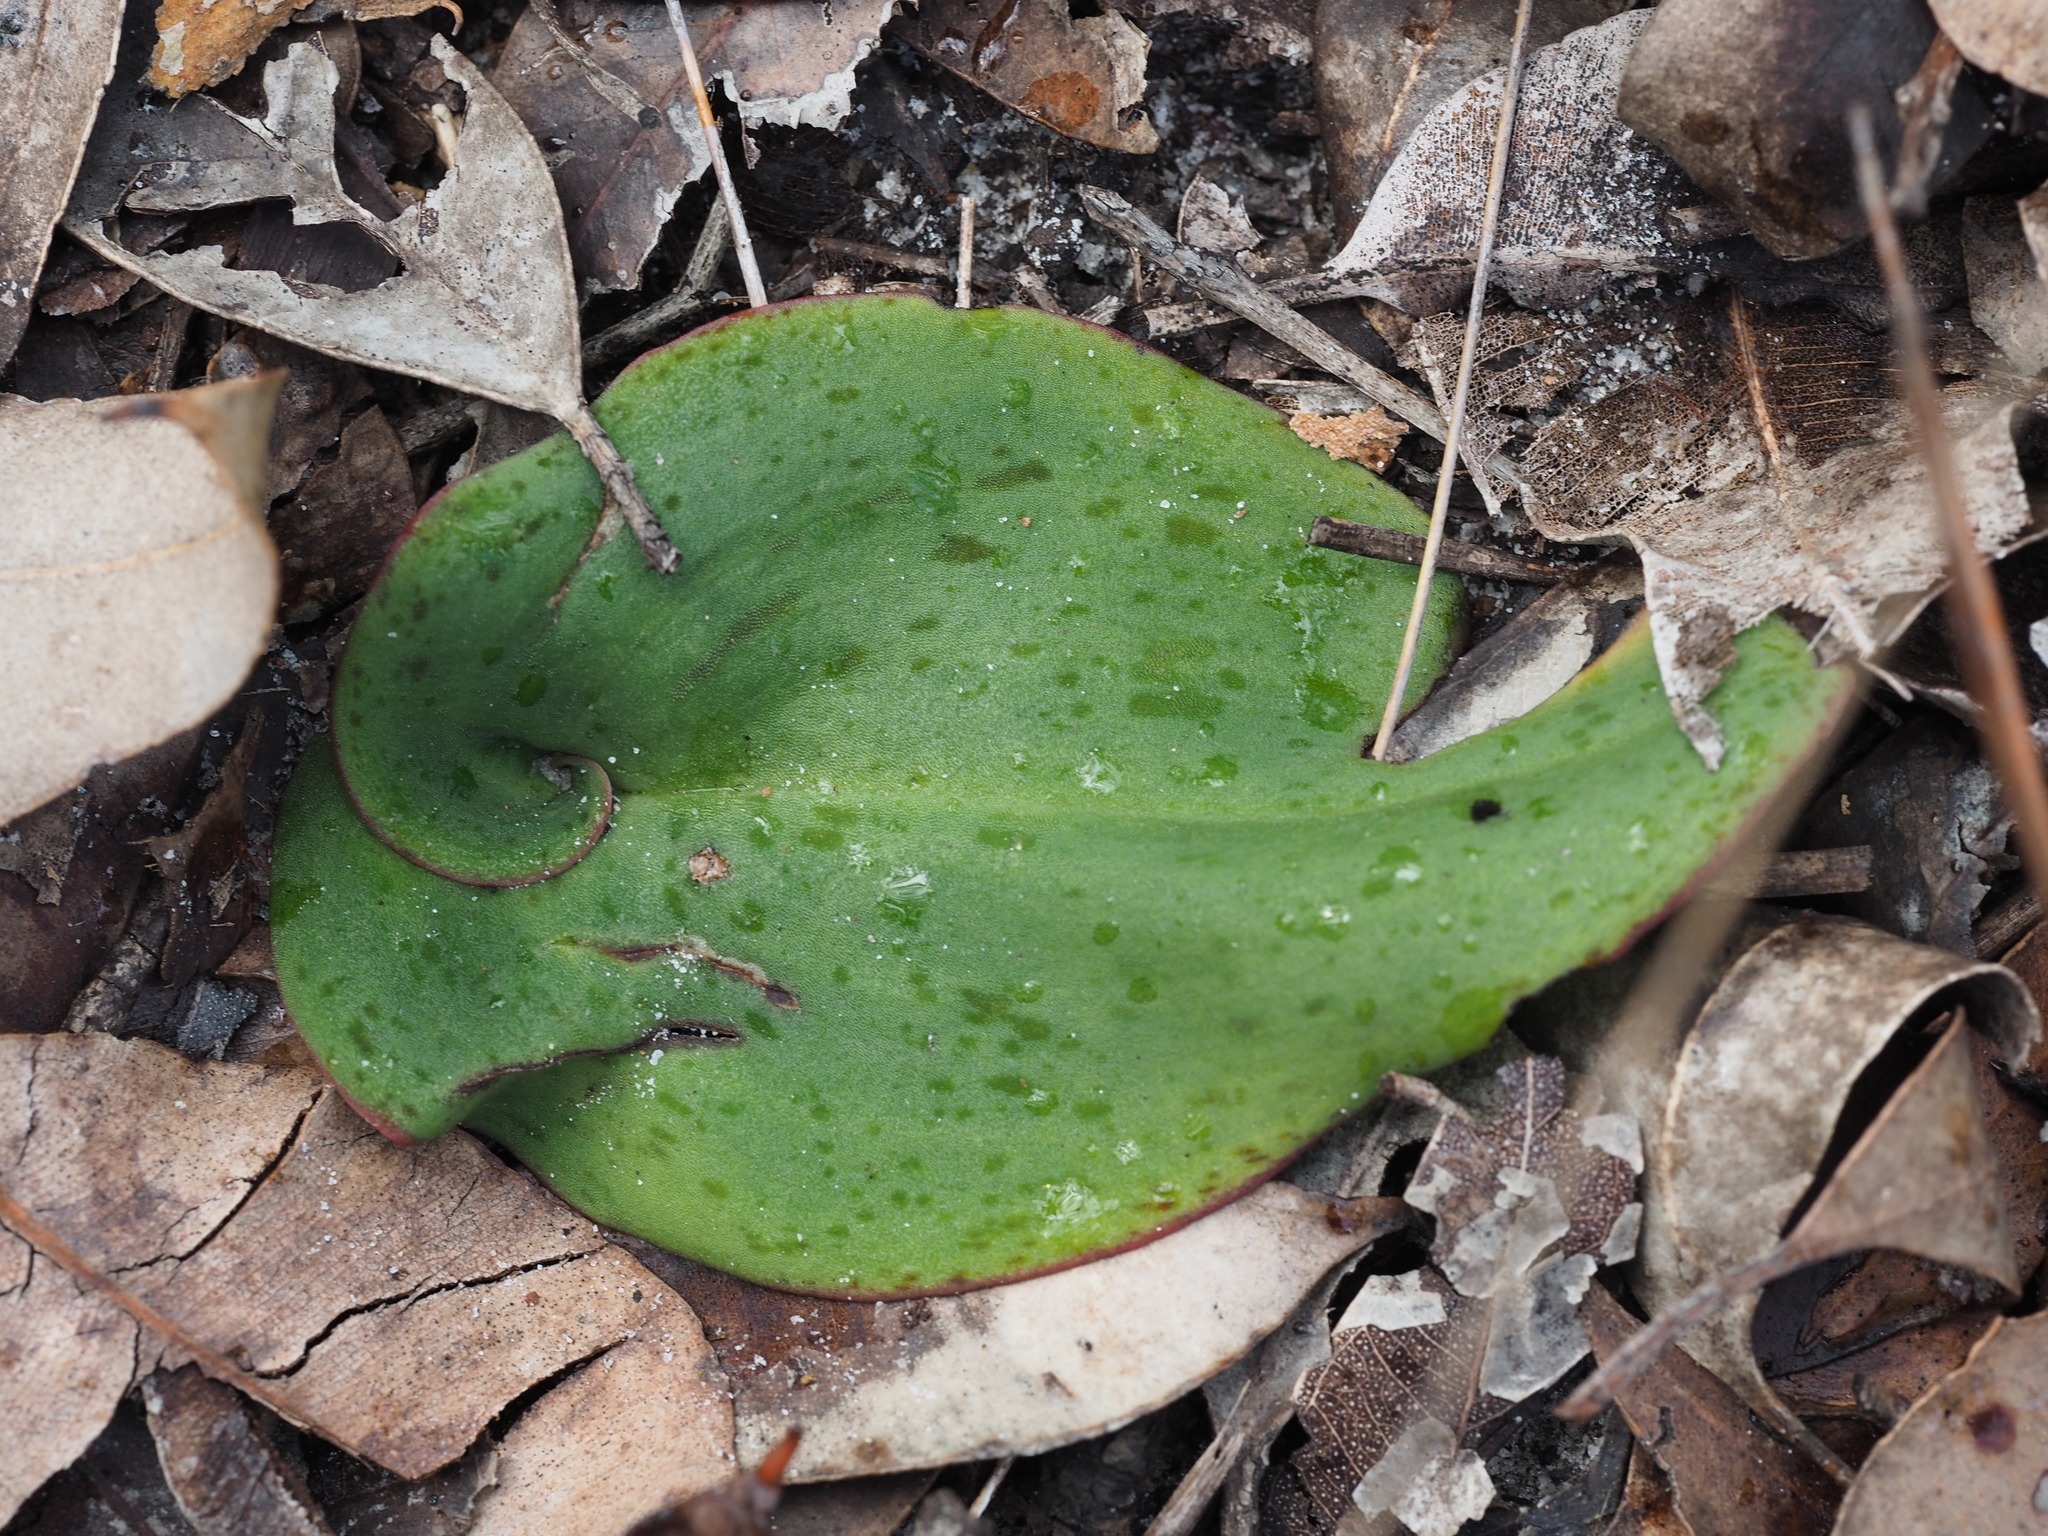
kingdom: Plantae
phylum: Tracheophyta
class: Liliopsida
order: Asparagales
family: Orchidaceae
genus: Pyrorchis
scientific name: Pyrorchis nigricans
